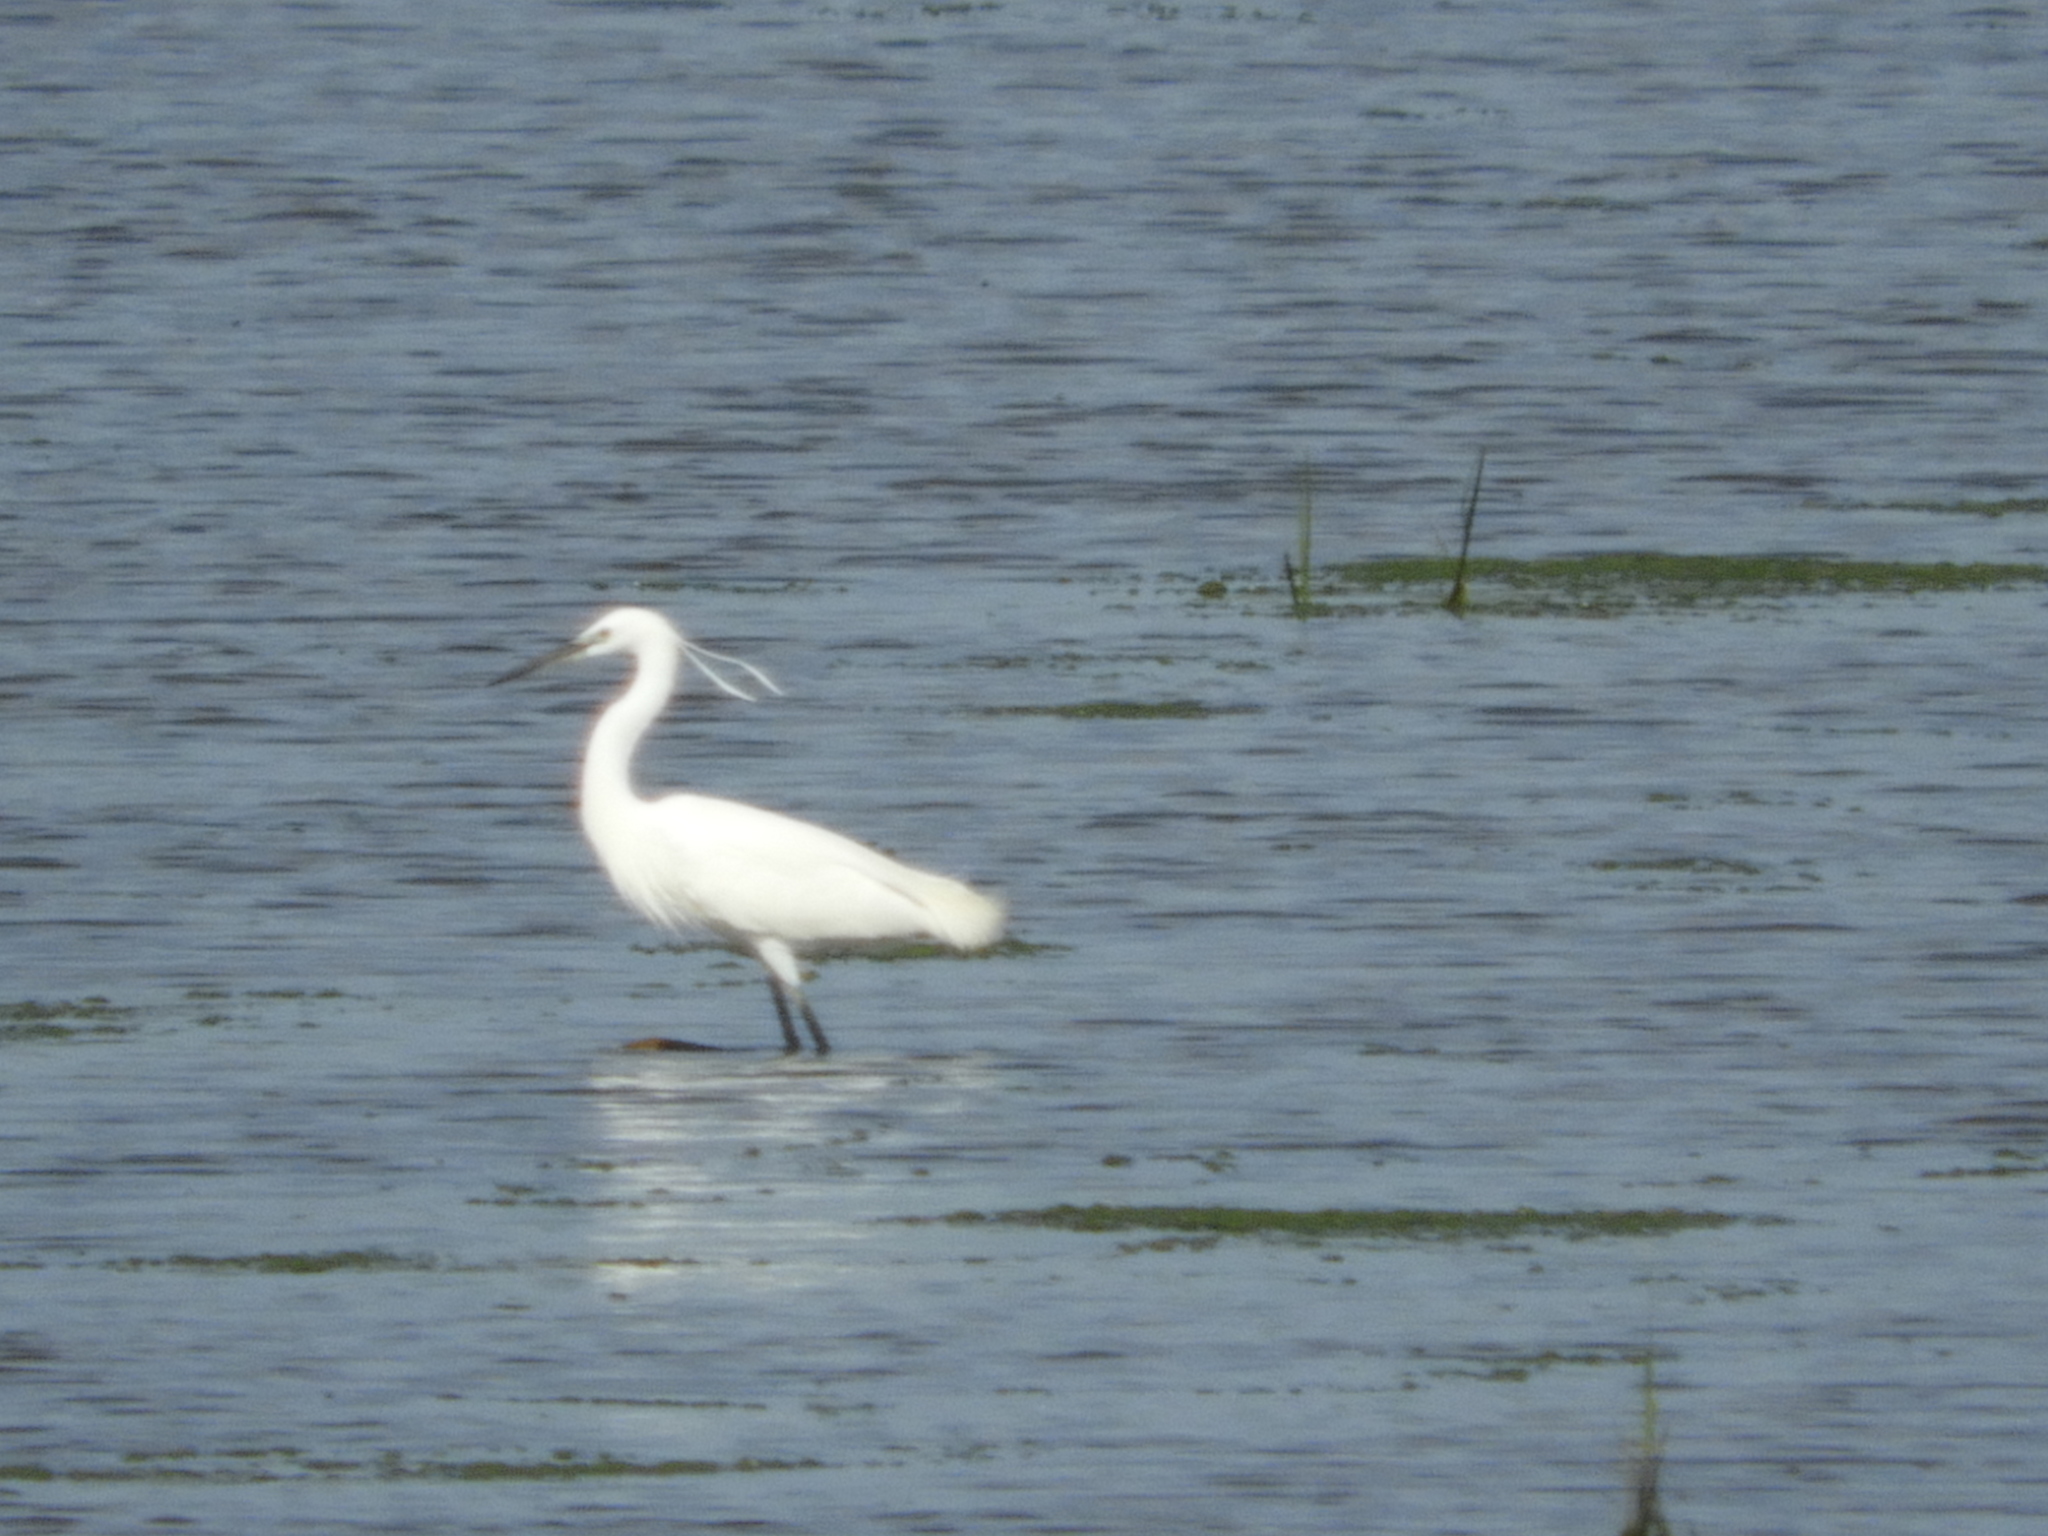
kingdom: Animalia
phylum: Chordata
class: Aves
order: Pelecaniformes
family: Ardeidae
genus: Egretta
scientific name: Egretta garzetta
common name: Little egret
